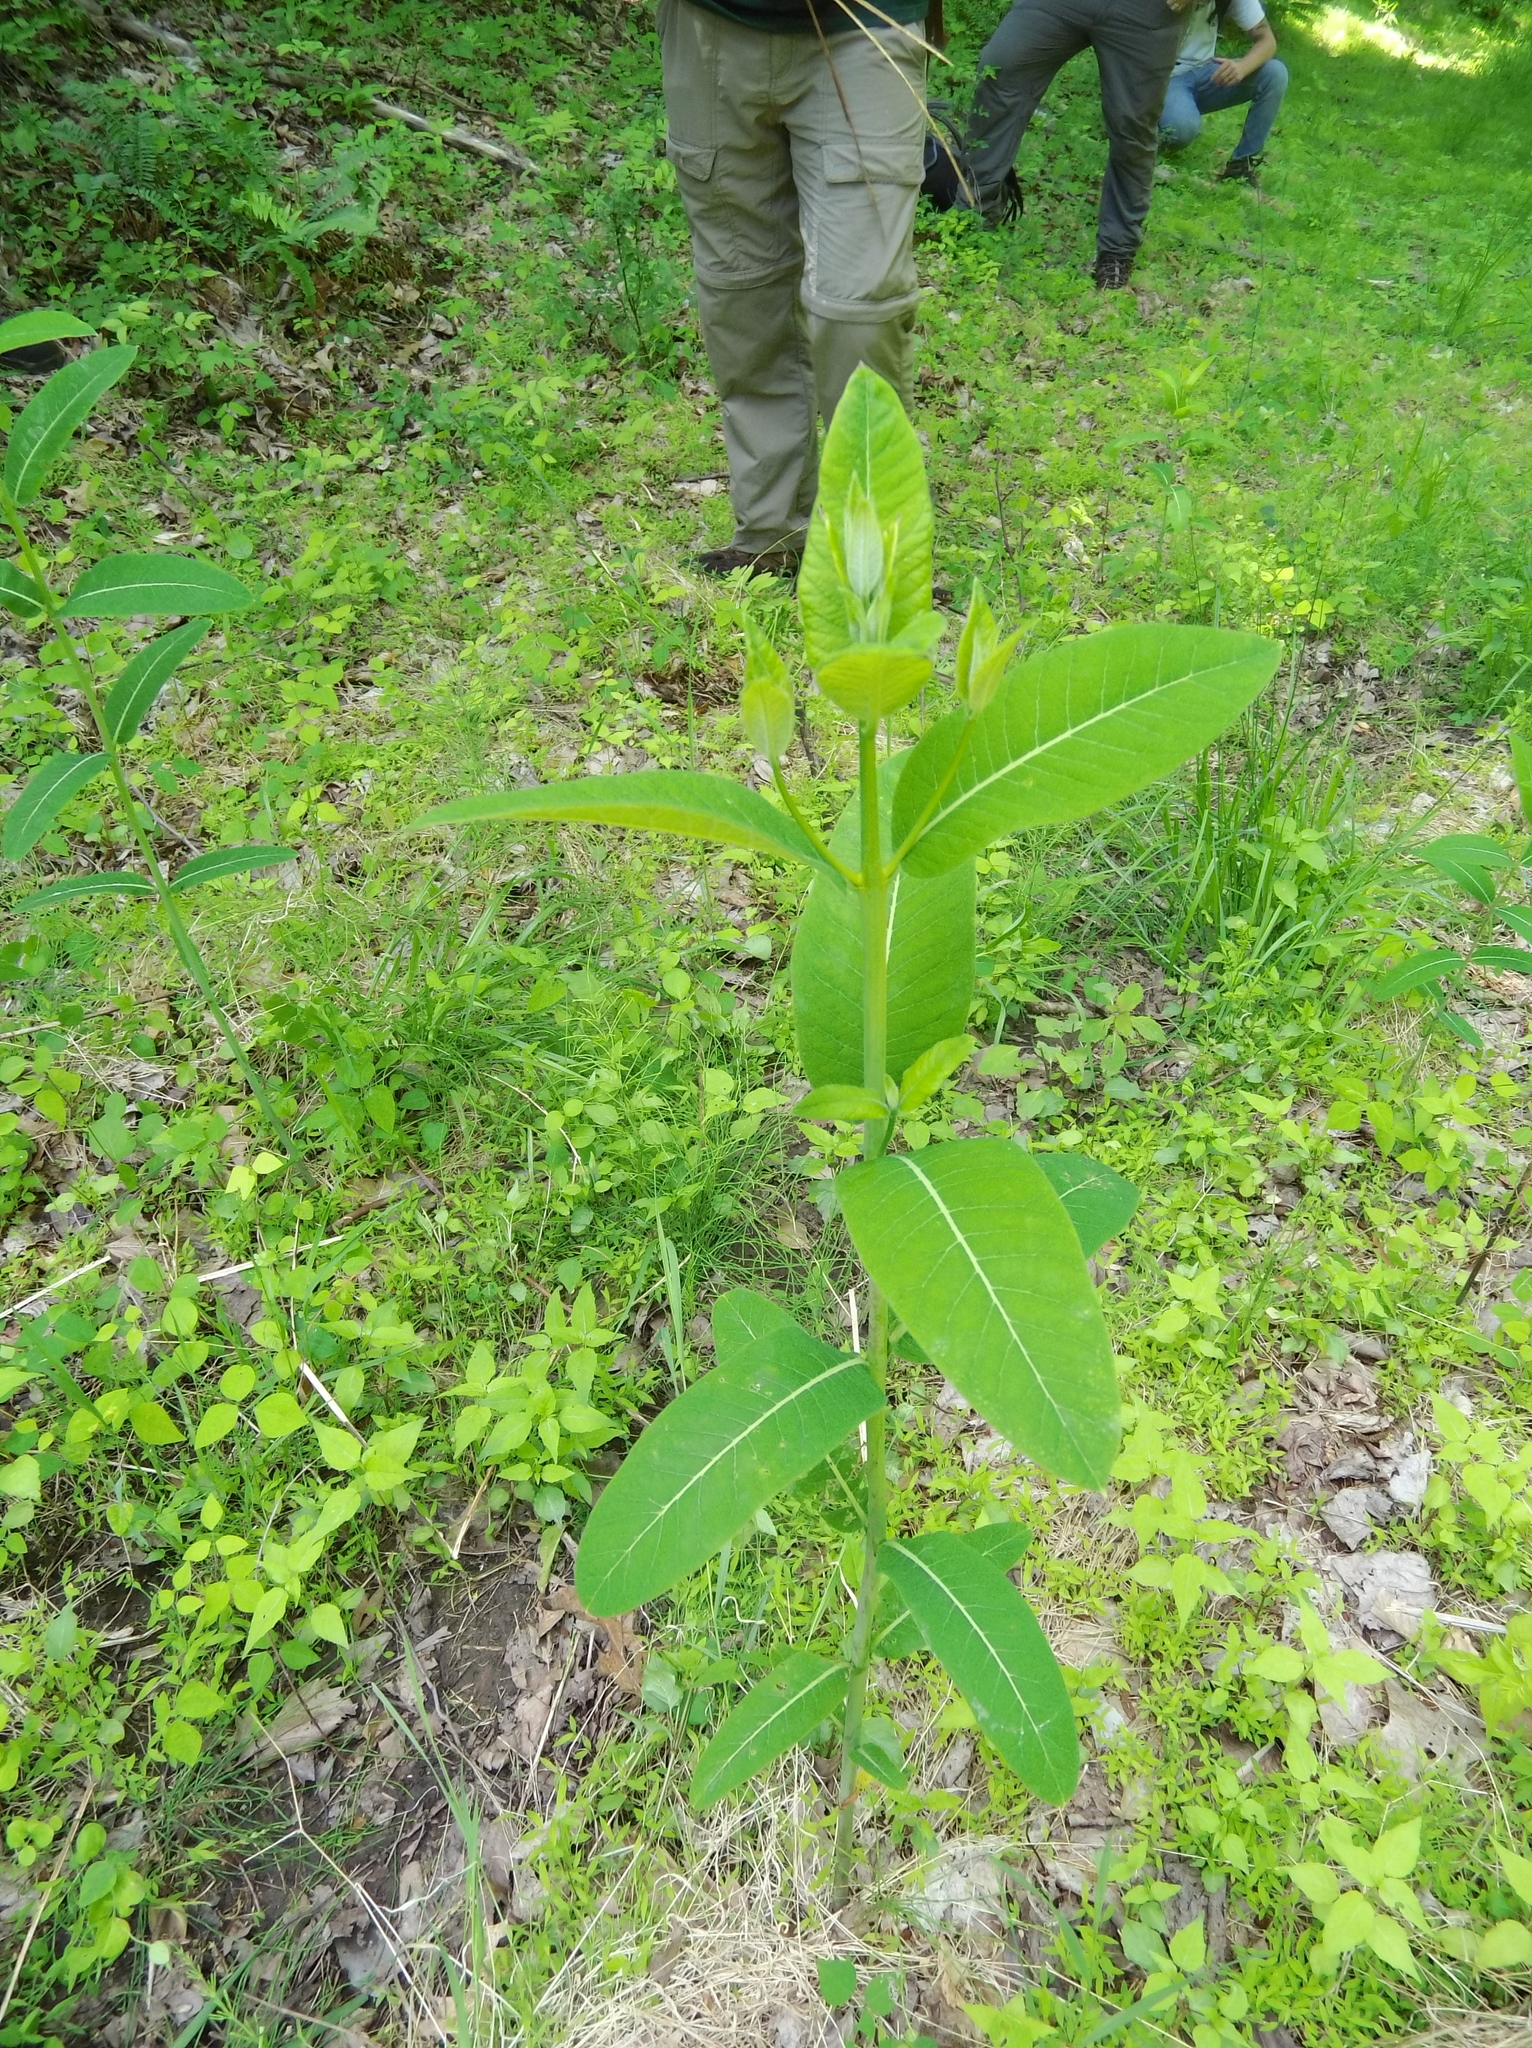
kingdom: Plantae
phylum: Tracheophyta
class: Magnoliopsida
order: Gentianales
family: Apocynaceae
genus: Apocynum
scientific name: Apocynum cannabinum
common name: Hemp dogbane
